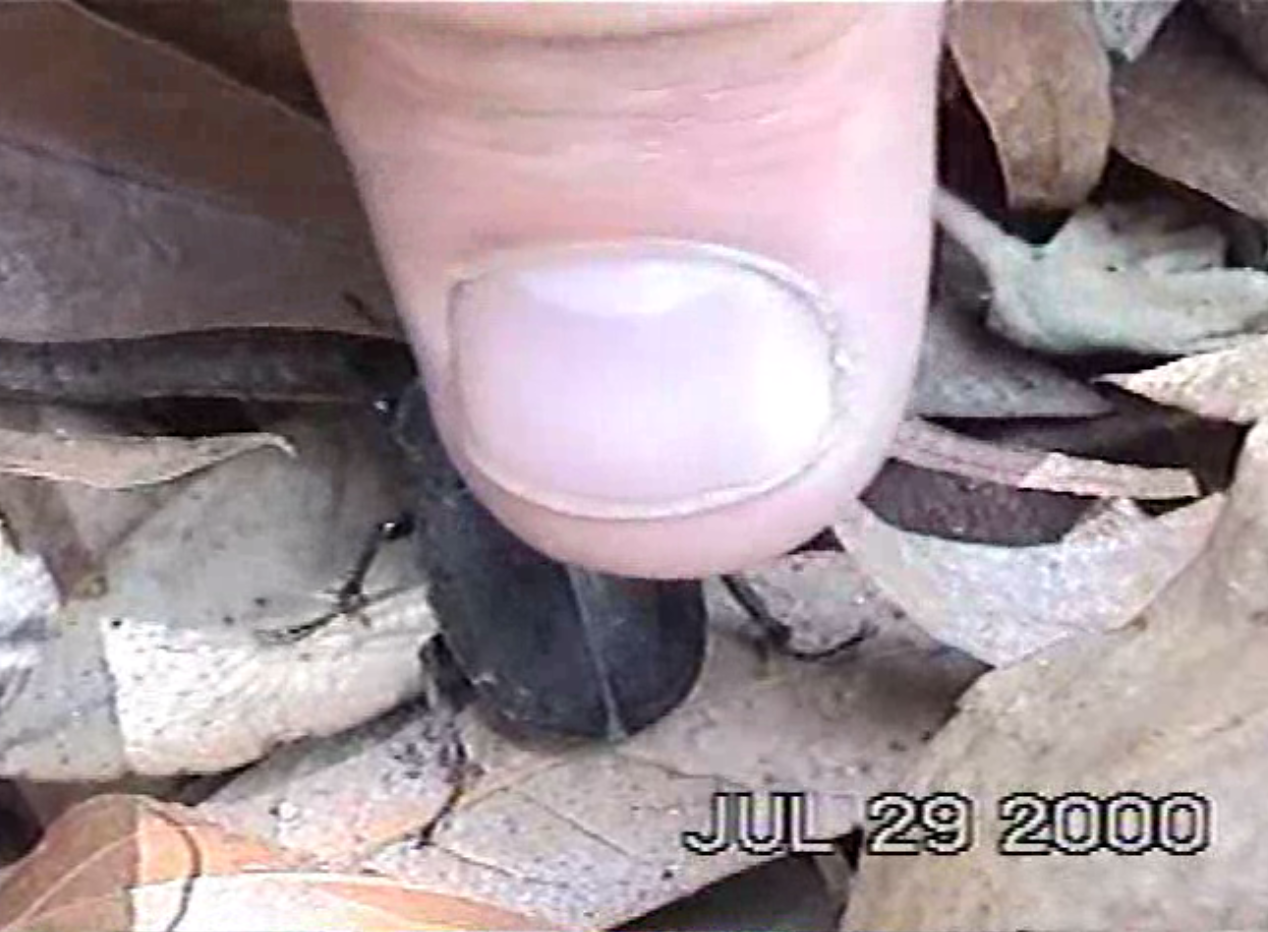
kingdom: Animalia
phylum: Arthropoda
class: Insecta
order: Coleoptera
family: Lucanidae
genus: Lucanus
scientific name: Lucanus mazama
